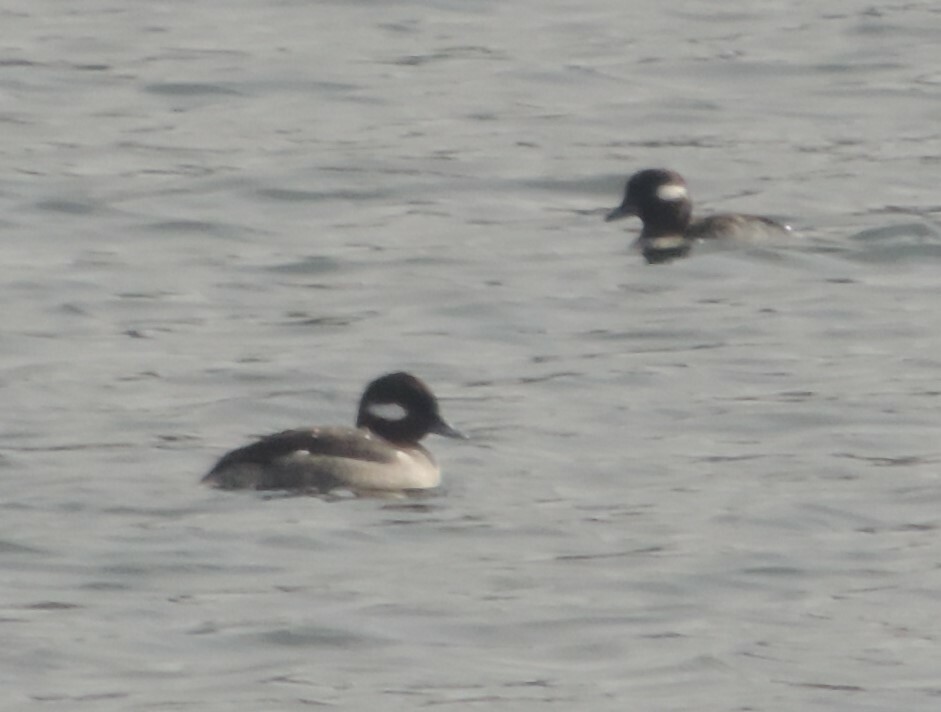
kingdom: Animalia
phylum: Chordata
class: Aves
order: Anseriformes
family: Anatidae
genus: Bucephala
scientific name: Bucephala albeola
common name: Bufflehead
